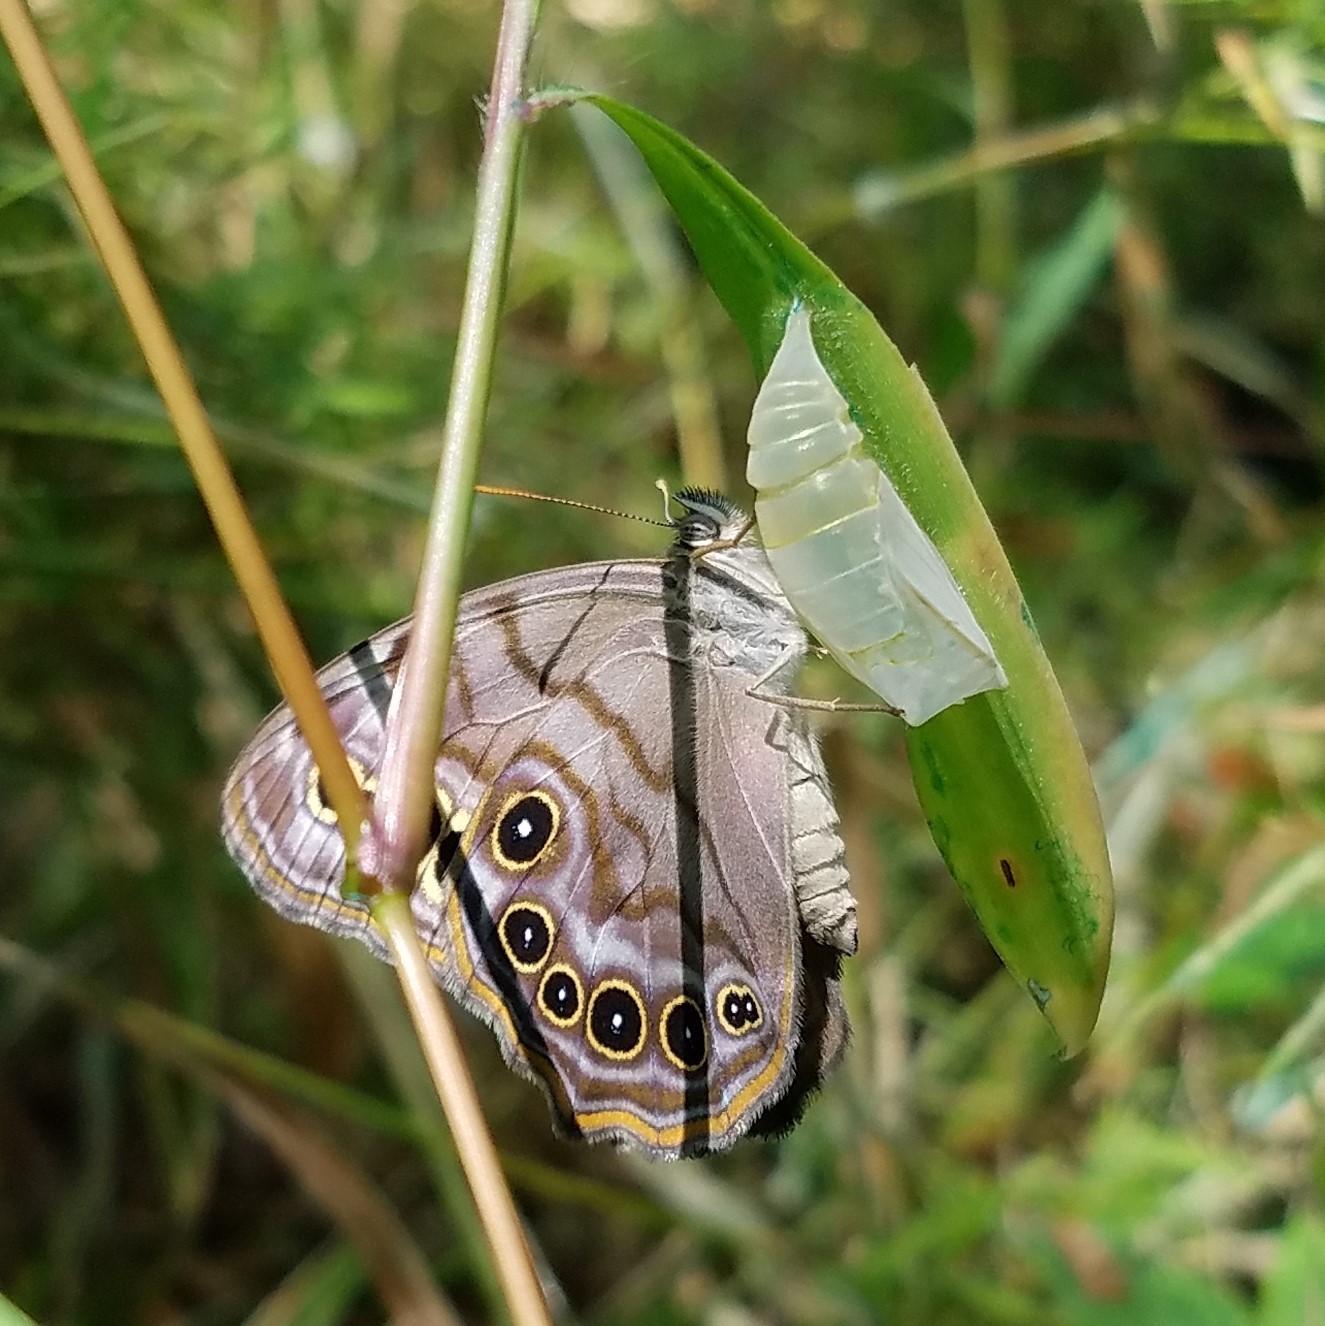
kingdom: Animalia
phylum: Arthropoda
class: Insecta
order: Lepidoptera
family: Nymphalidae
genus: Lethe
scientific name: Lethe anthedon
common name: Northern pearly-eye
